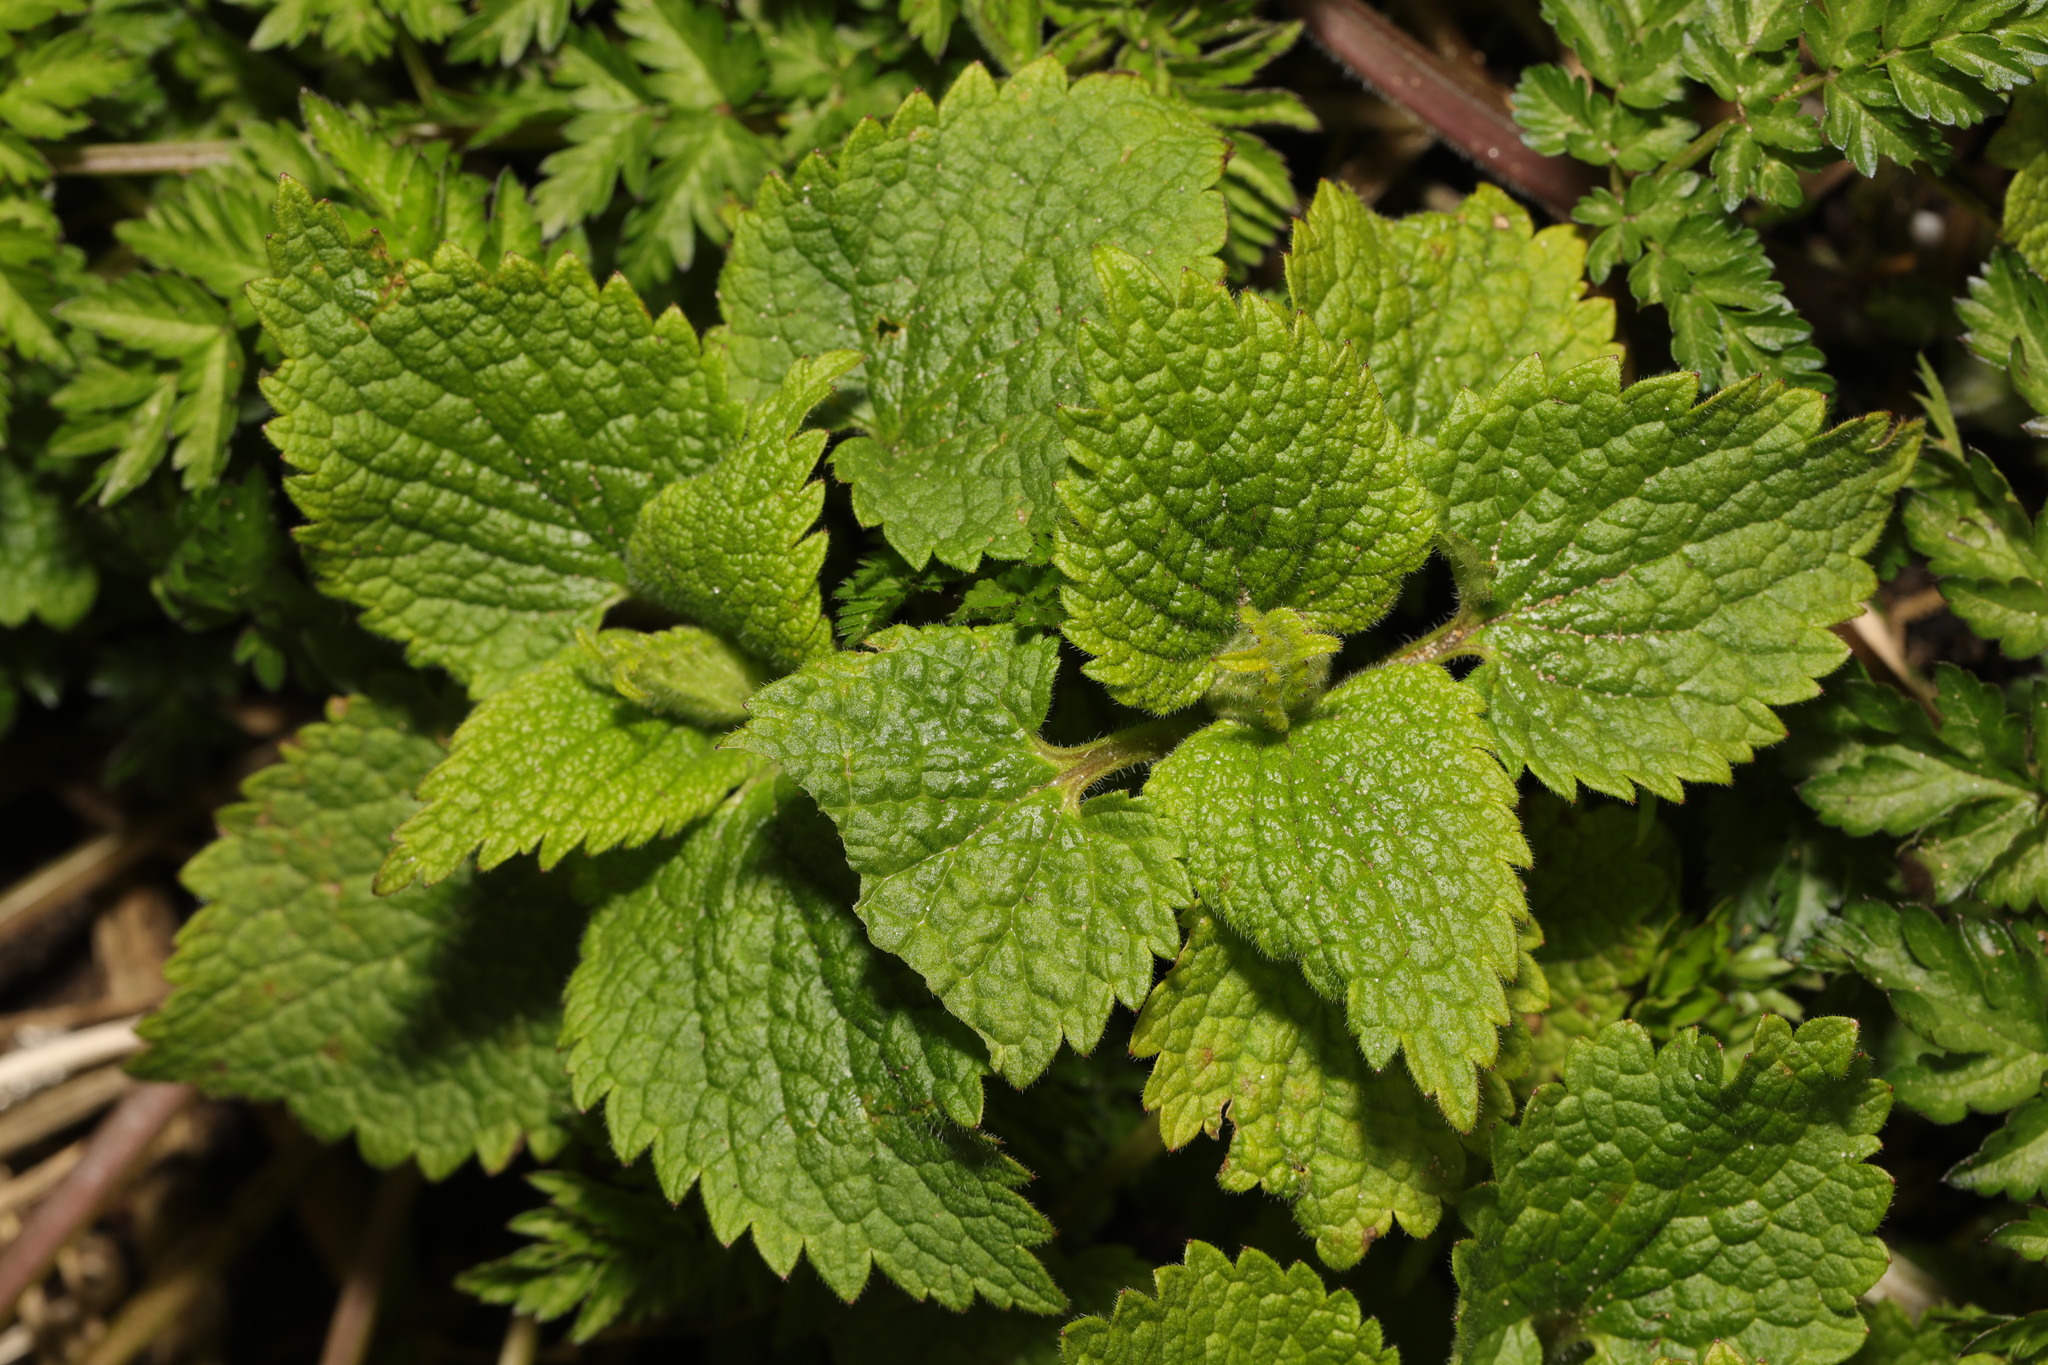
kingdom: Plantae
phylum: Tracheophyta
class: Magnoliopsida
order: Lamiales
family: Lamiaceae
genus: Lamium
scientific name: Lamium album
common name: White dead-nettle
